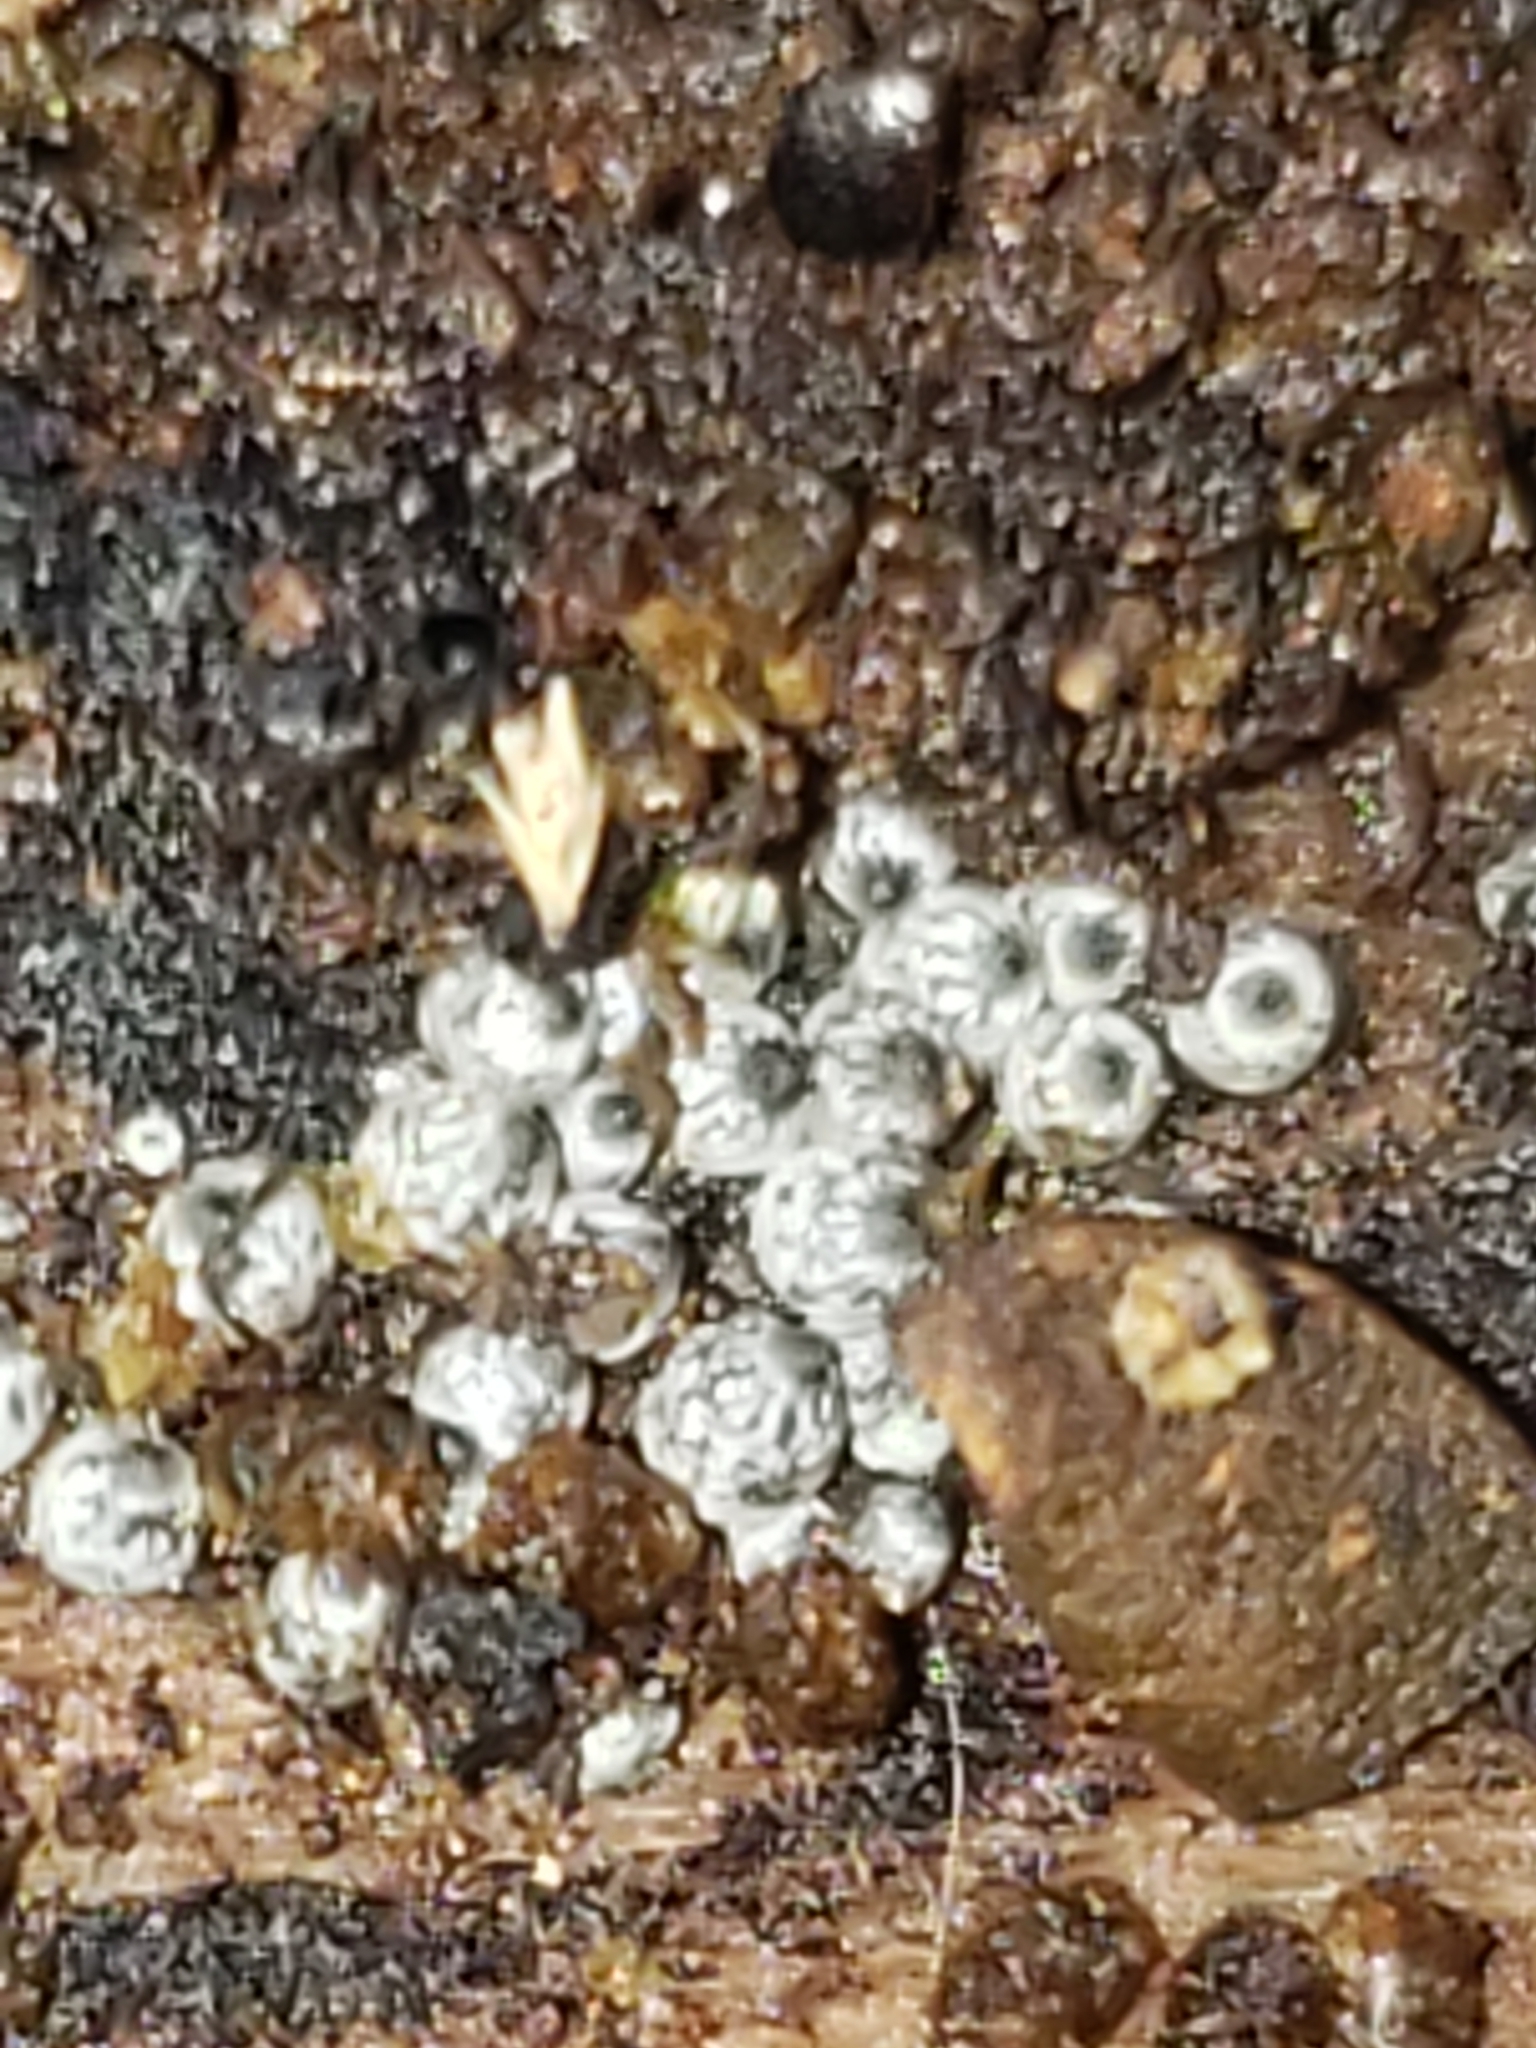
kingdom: Fungi
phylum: Ascomycota
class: Sordariomycetes
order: Sordariales
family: Lasiosphaeriaceae
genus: Lasiosphaeria
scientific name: Lasiosphaeria ovina
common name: Woolly woodwart
